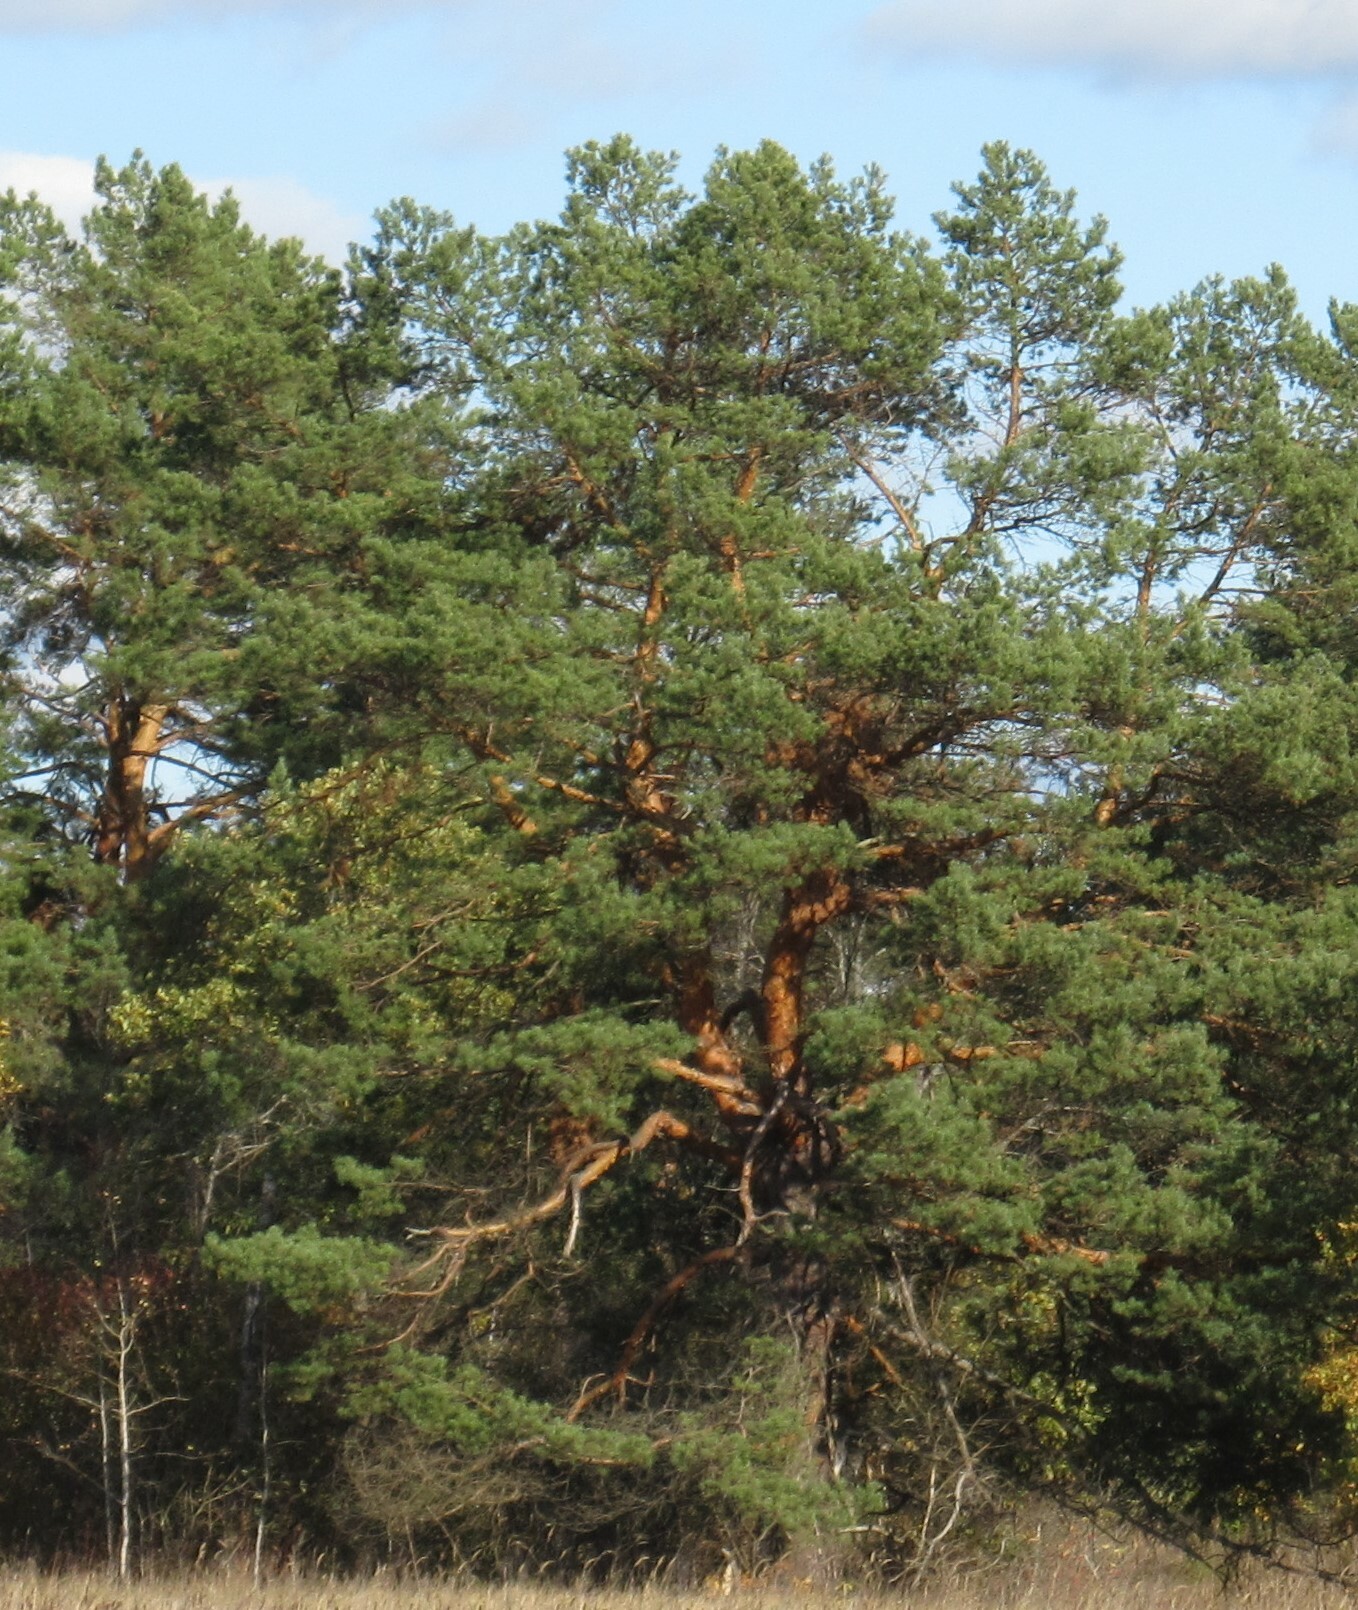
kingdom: Plantae
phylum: Tracheophyta
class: Pinopsida
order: Pinales
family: Pinaceae
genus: Pinus
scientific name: Pinus sylvestris
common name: Scots pine
